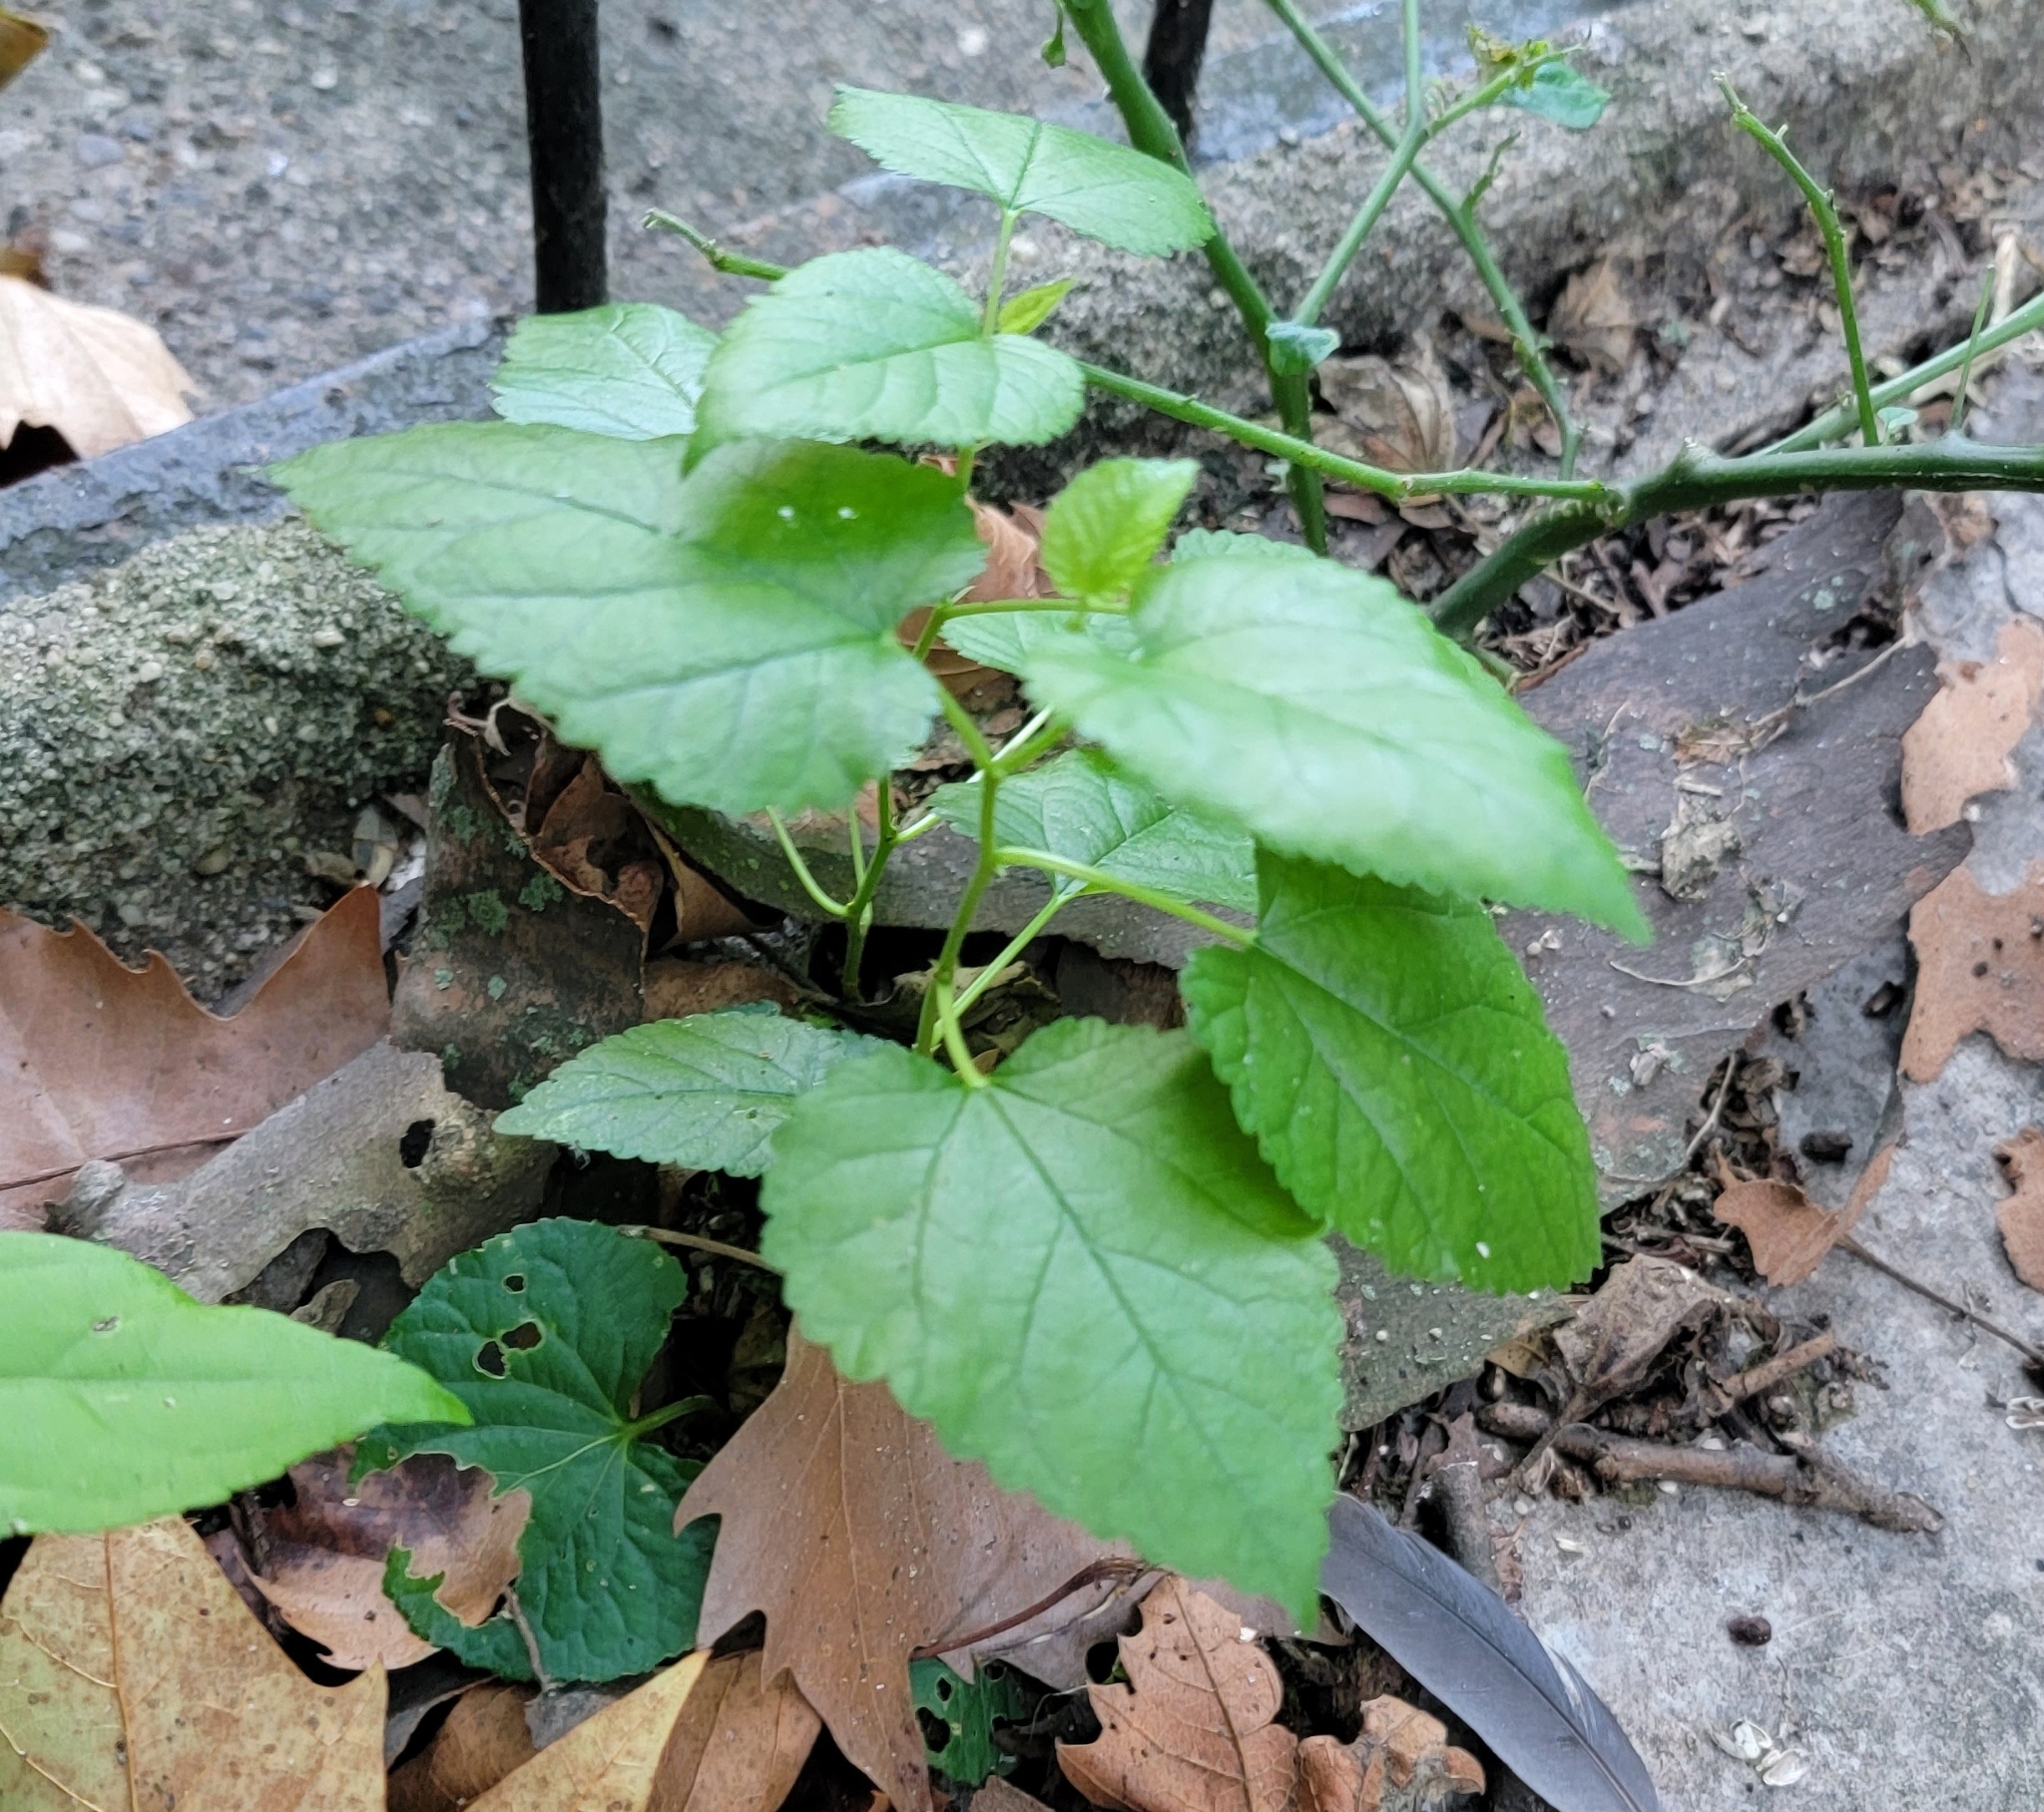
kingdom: Plantae
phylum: Tracheophyta
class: Magnoliopsida
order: Rosales
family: Moraceae
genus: Morus
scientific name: Morus alba
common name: White mulberry
